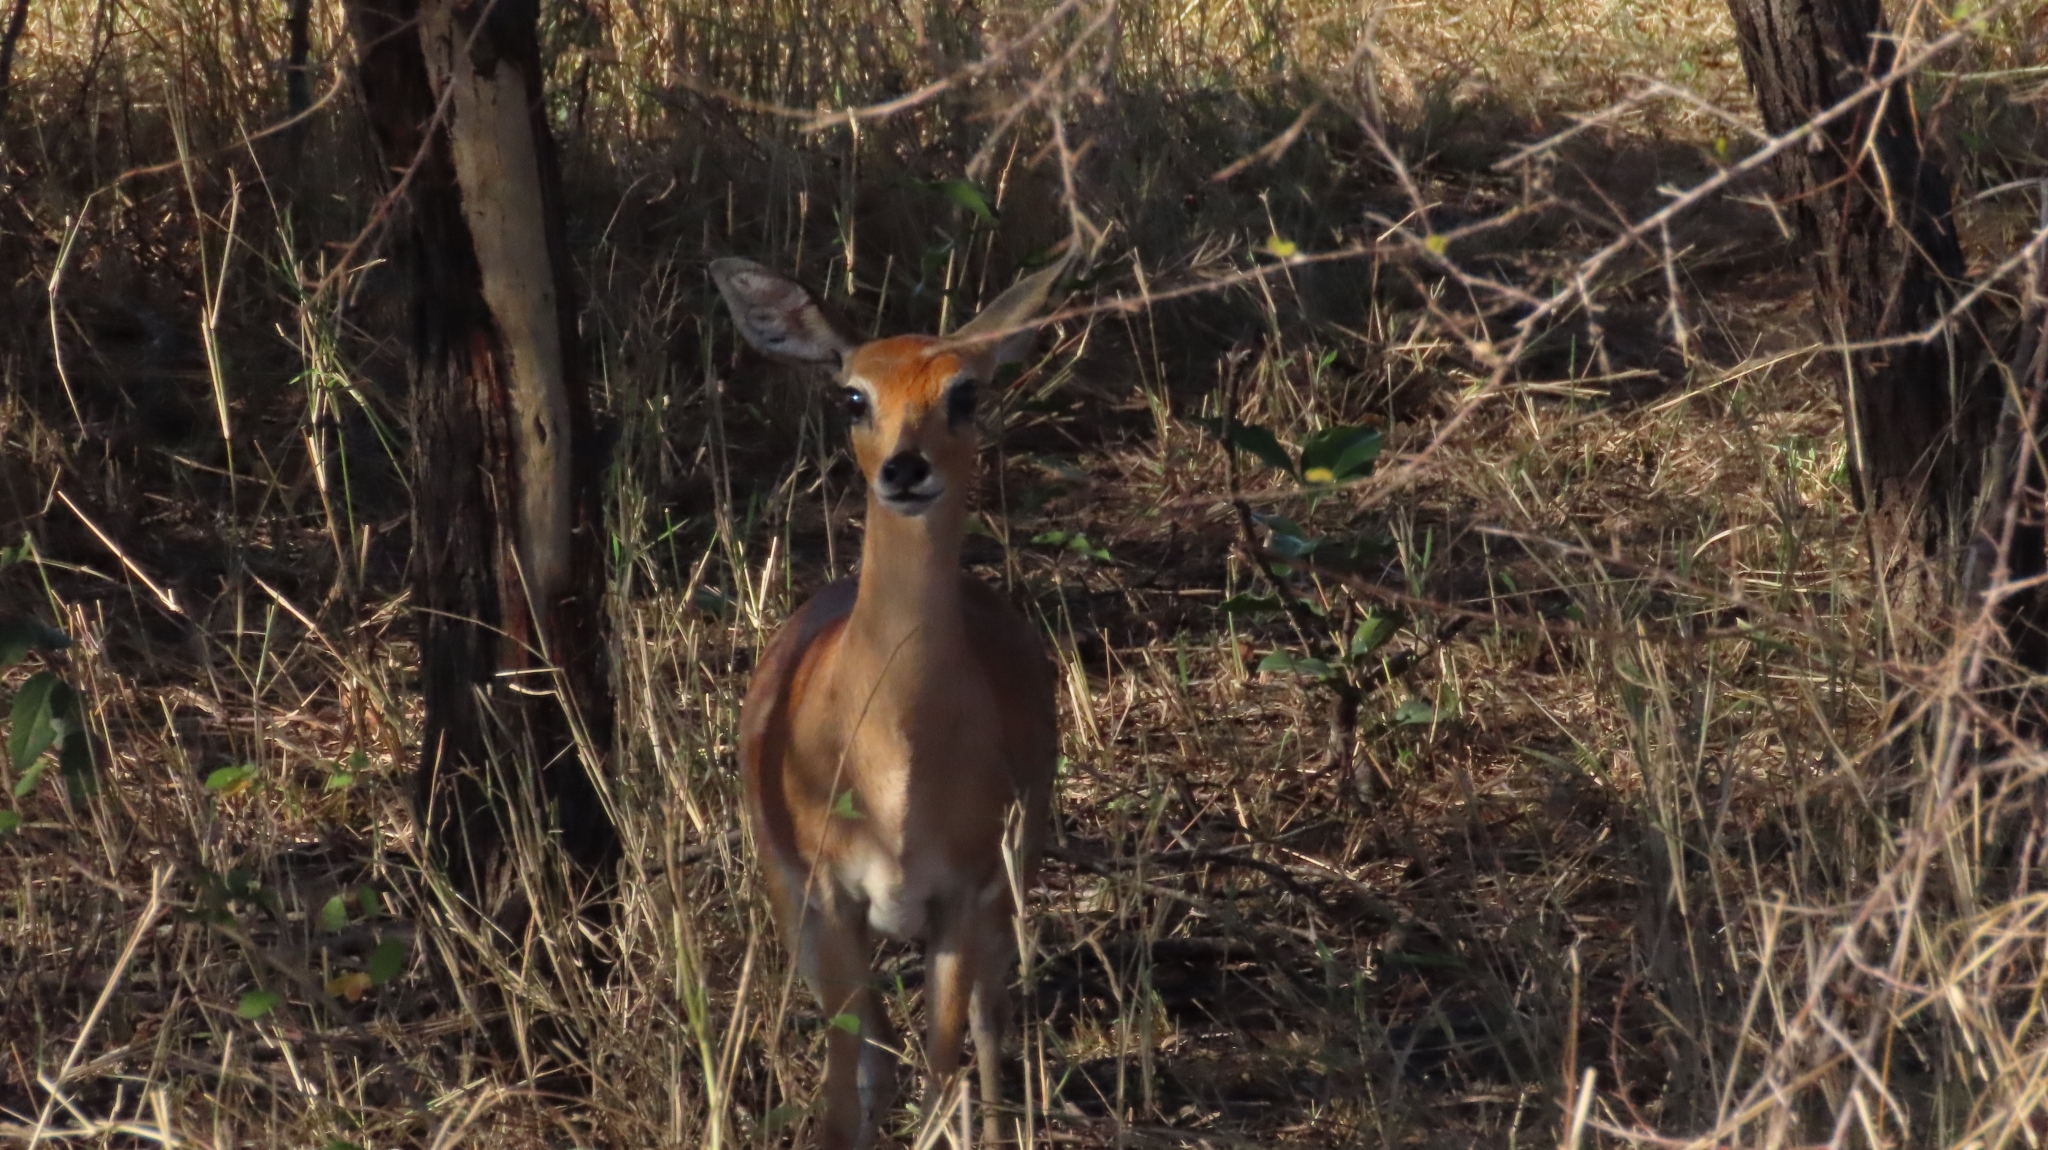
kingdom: Animalia
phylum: Chordata
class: Mammalia
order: Artiodactyla
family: Bovidae
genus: Raphicerus
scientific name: Raphicerus campestris
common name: Steenbok
